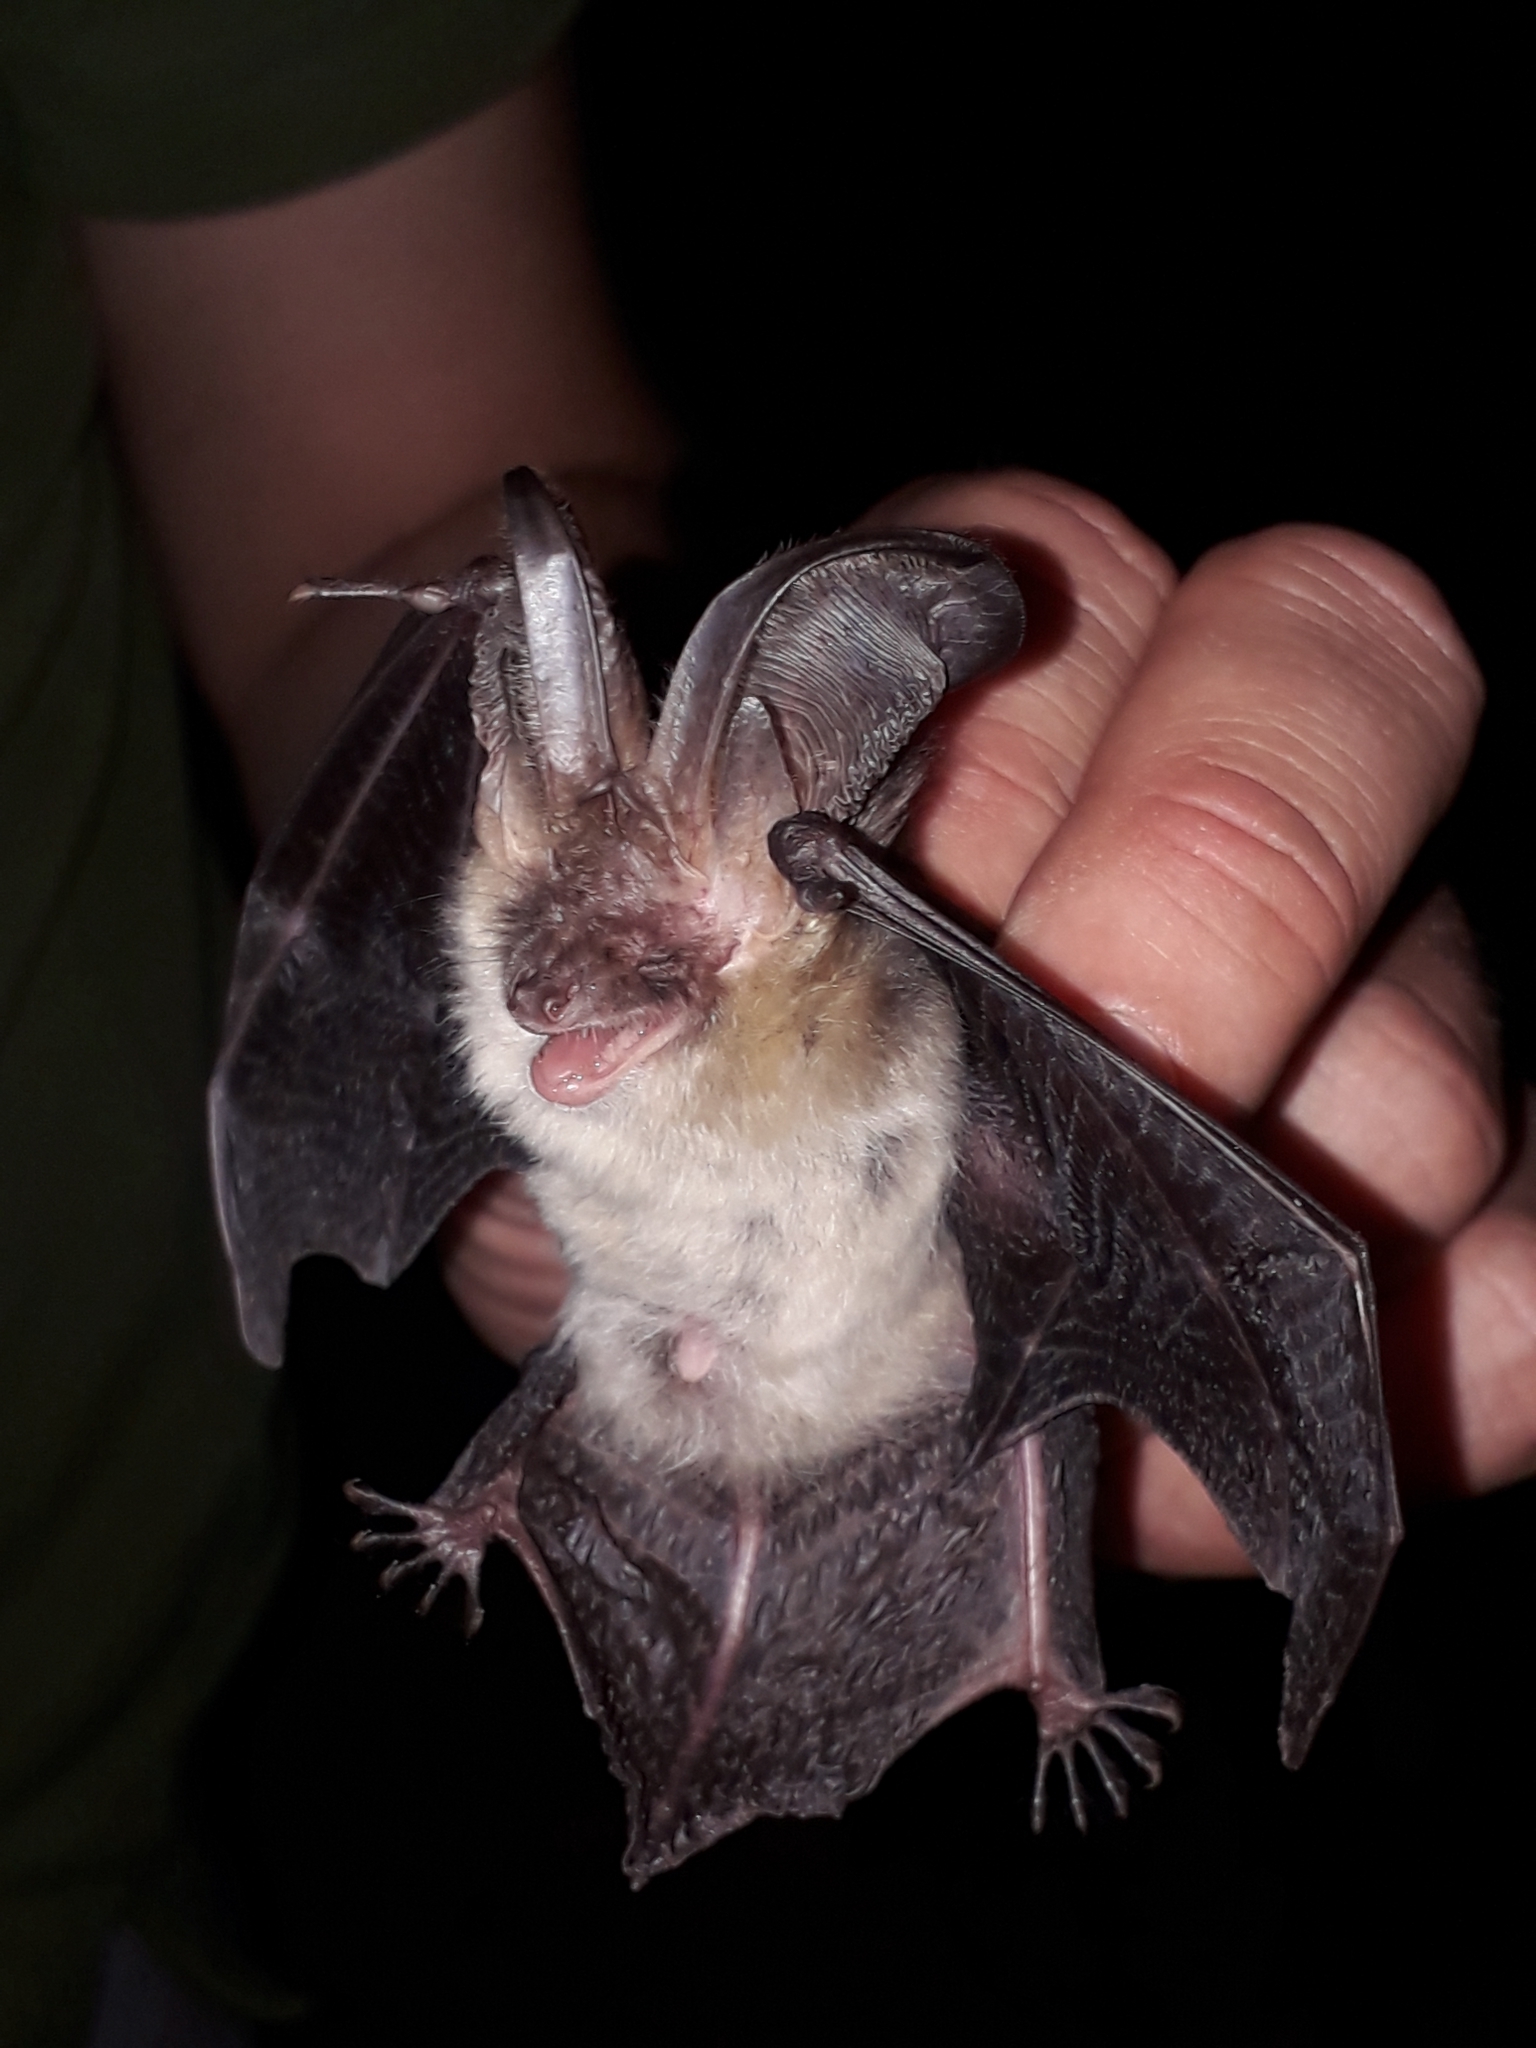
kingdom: Animalia
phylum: Chordata
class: Mammalia
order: Chiroptera
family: Vespertilionidae
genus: Plecotus
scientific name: Plecotus auritus
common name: Brown long-eared bat
